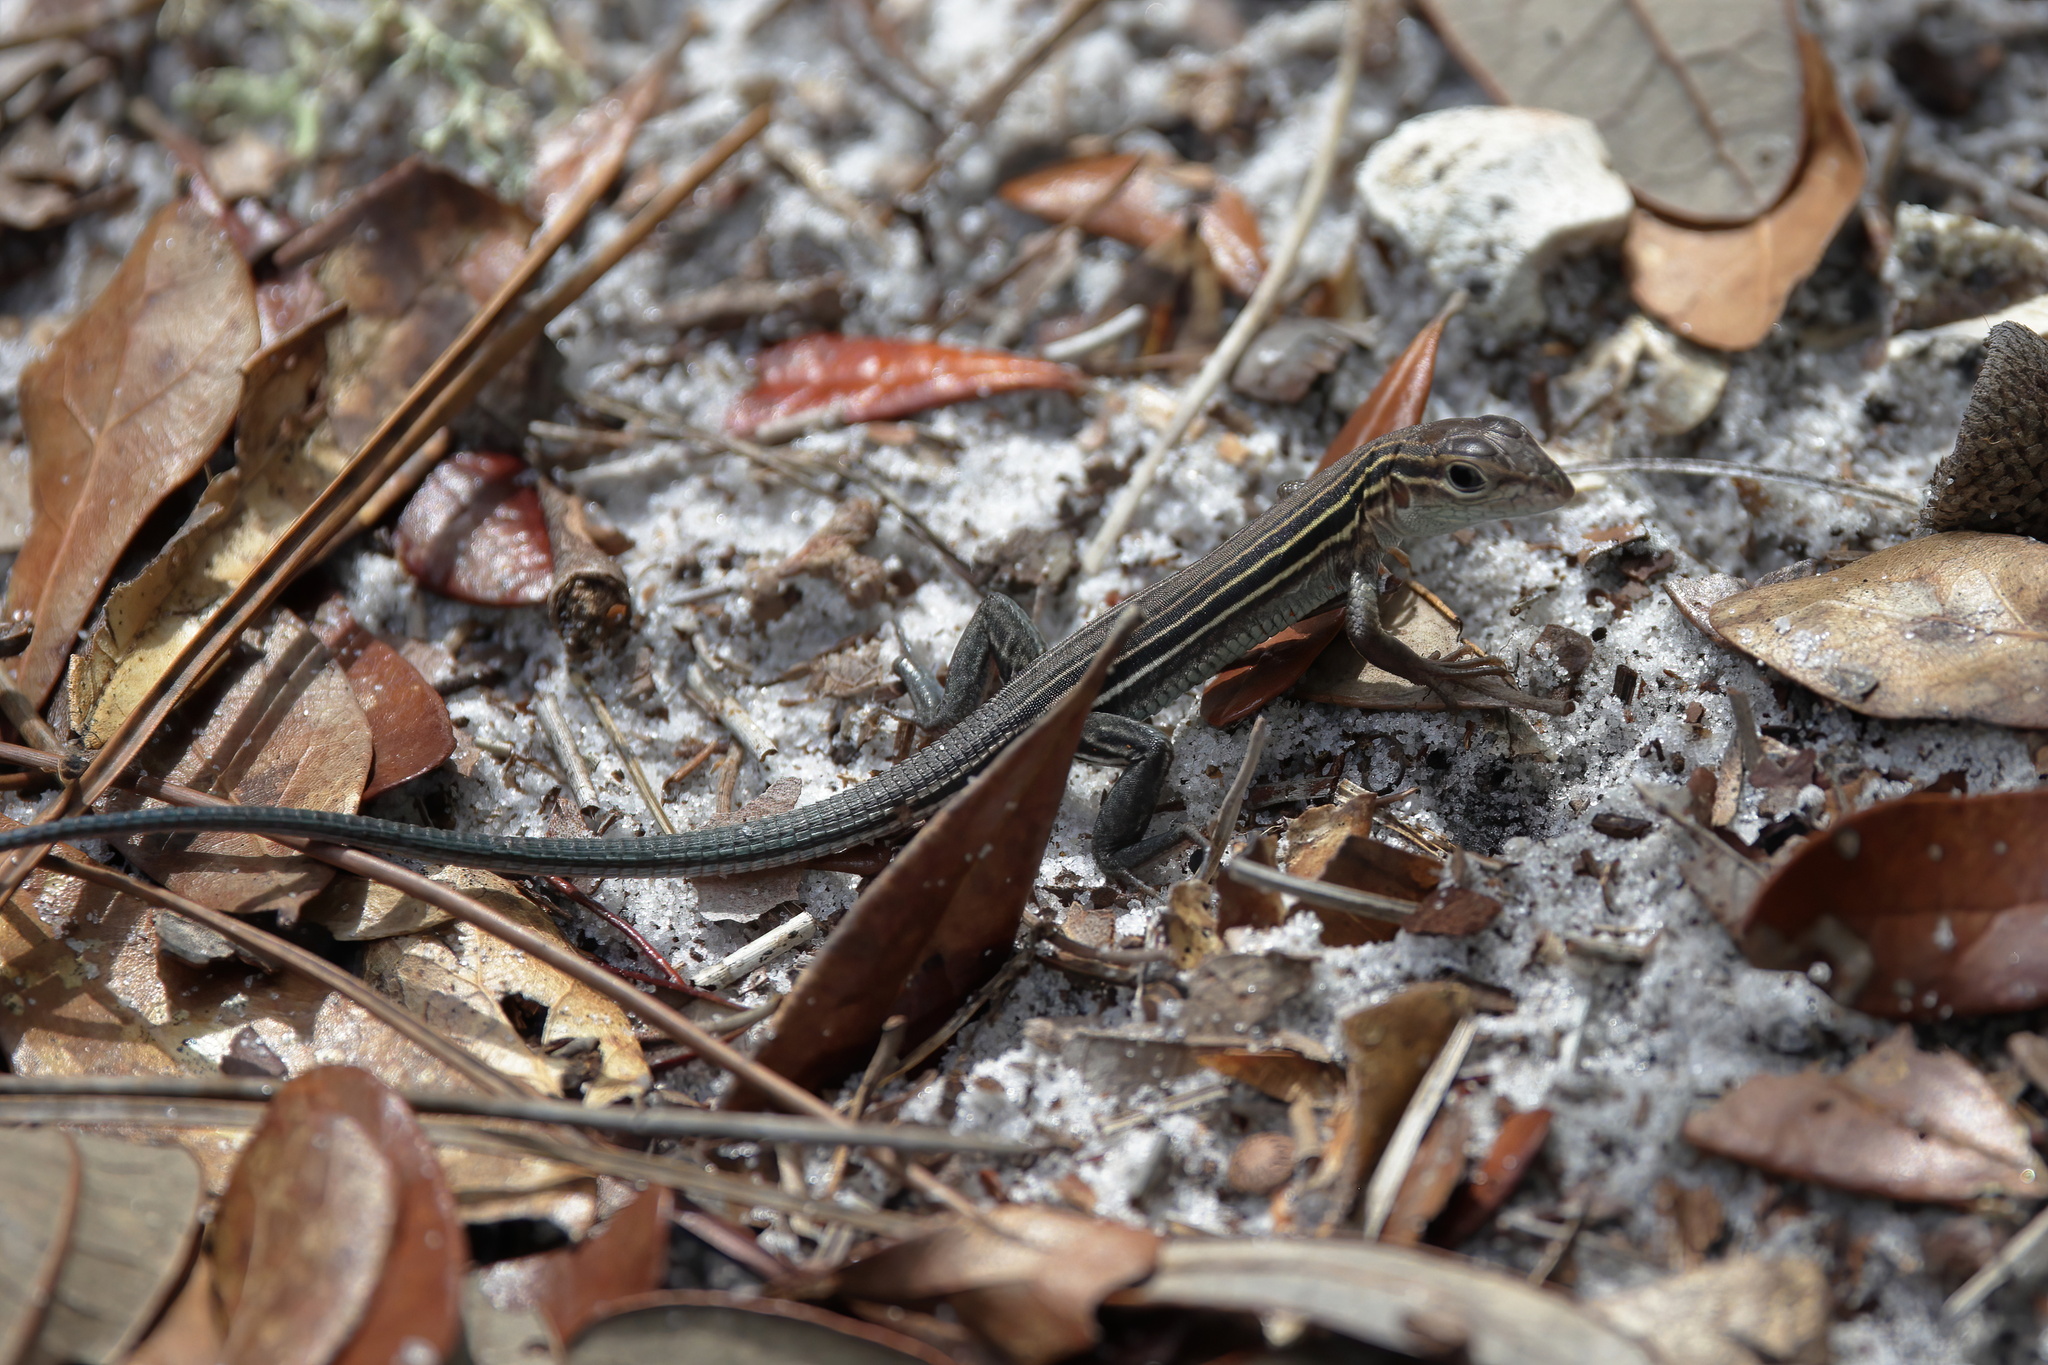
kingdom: Animalia
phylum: Chordata
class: Squamata
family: Teiidae
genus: Aspidoscelis
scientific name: Aspidoscelis sexlineatus
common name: Six-lined racerunner
